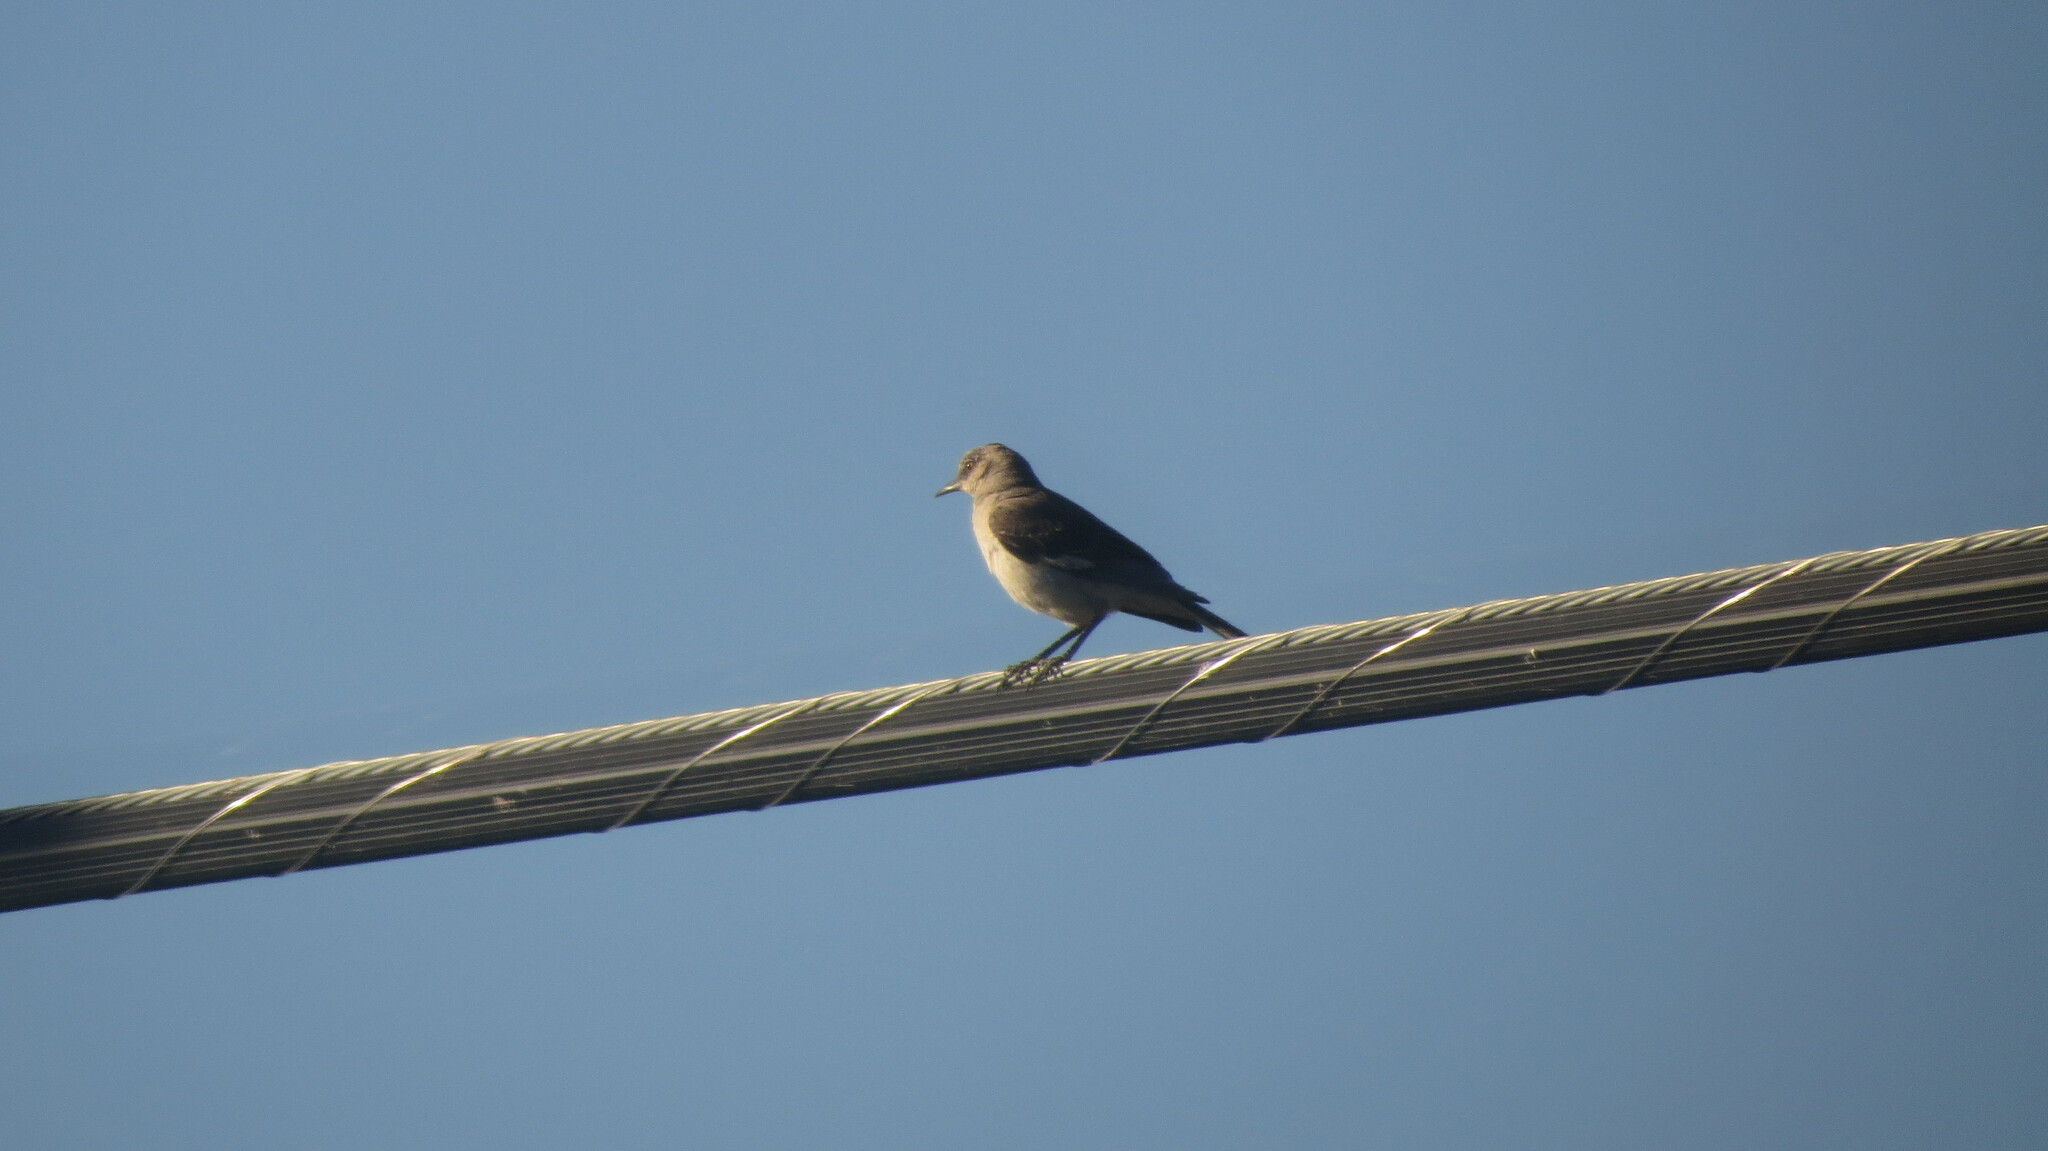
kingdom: Animalia
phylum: Chordata
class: Aves
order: Passeriformes
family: Mimidae
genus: Mimus
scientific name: Mimus polyglottos
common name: Northern mockingbird
